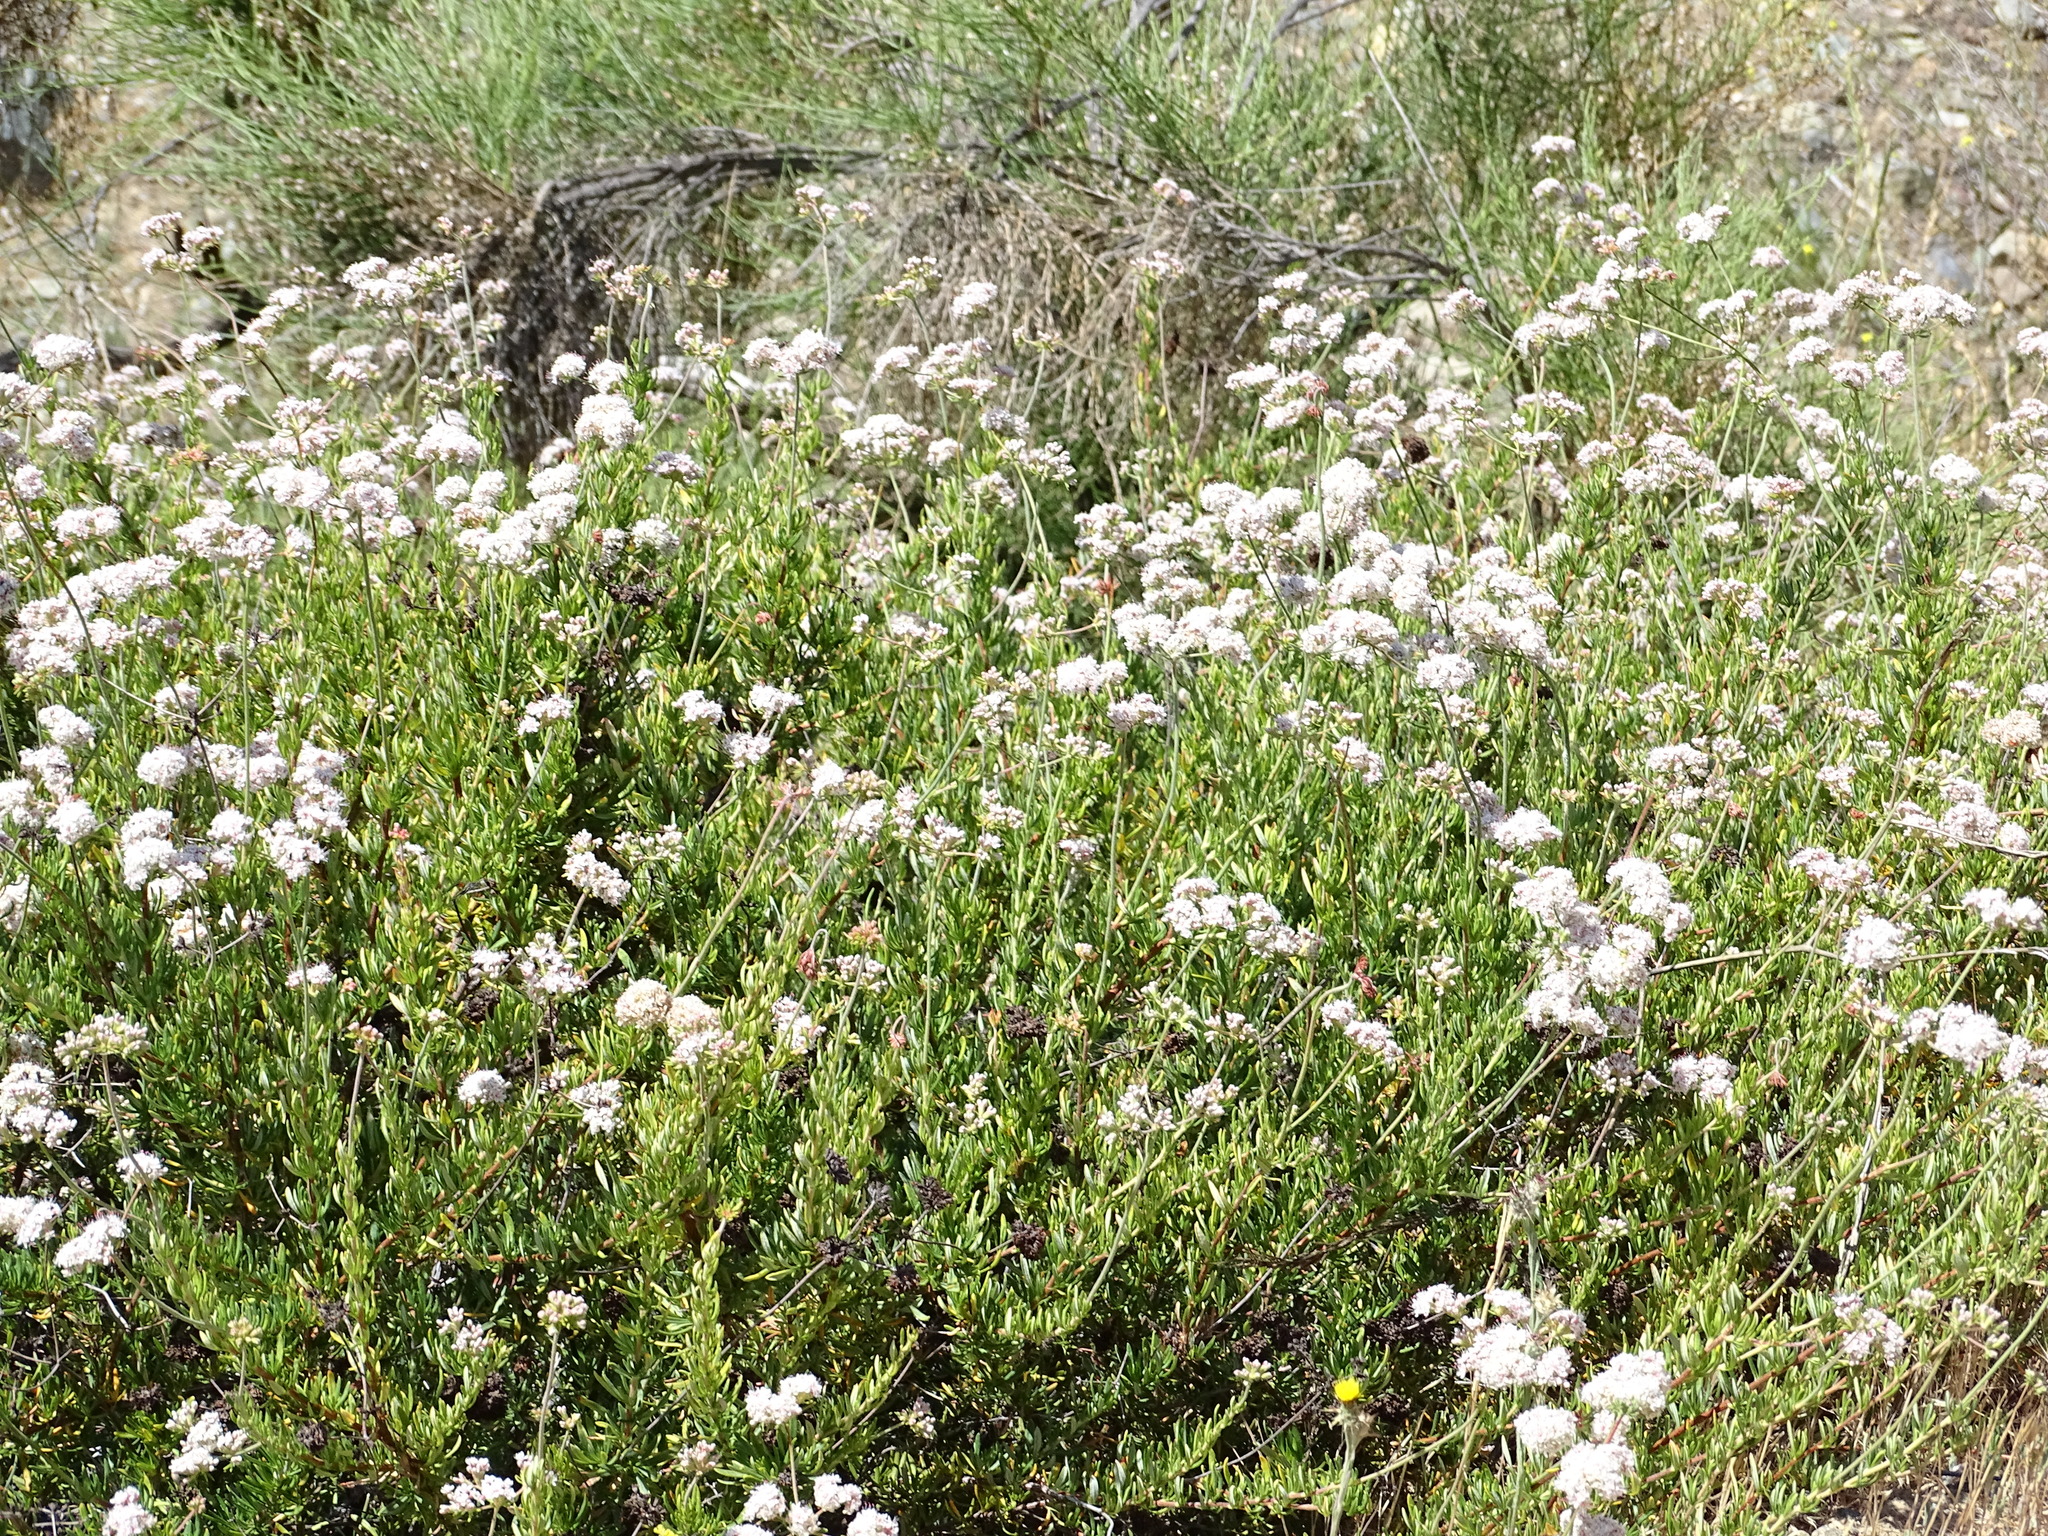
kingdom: Plantae
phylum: Tracheophyta
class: Magnoliopsida
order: Caryophyllales
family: Polygonaceae
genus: Eriogonum
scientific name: Eriogonum fasciculatum
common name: California wild buckwheat
